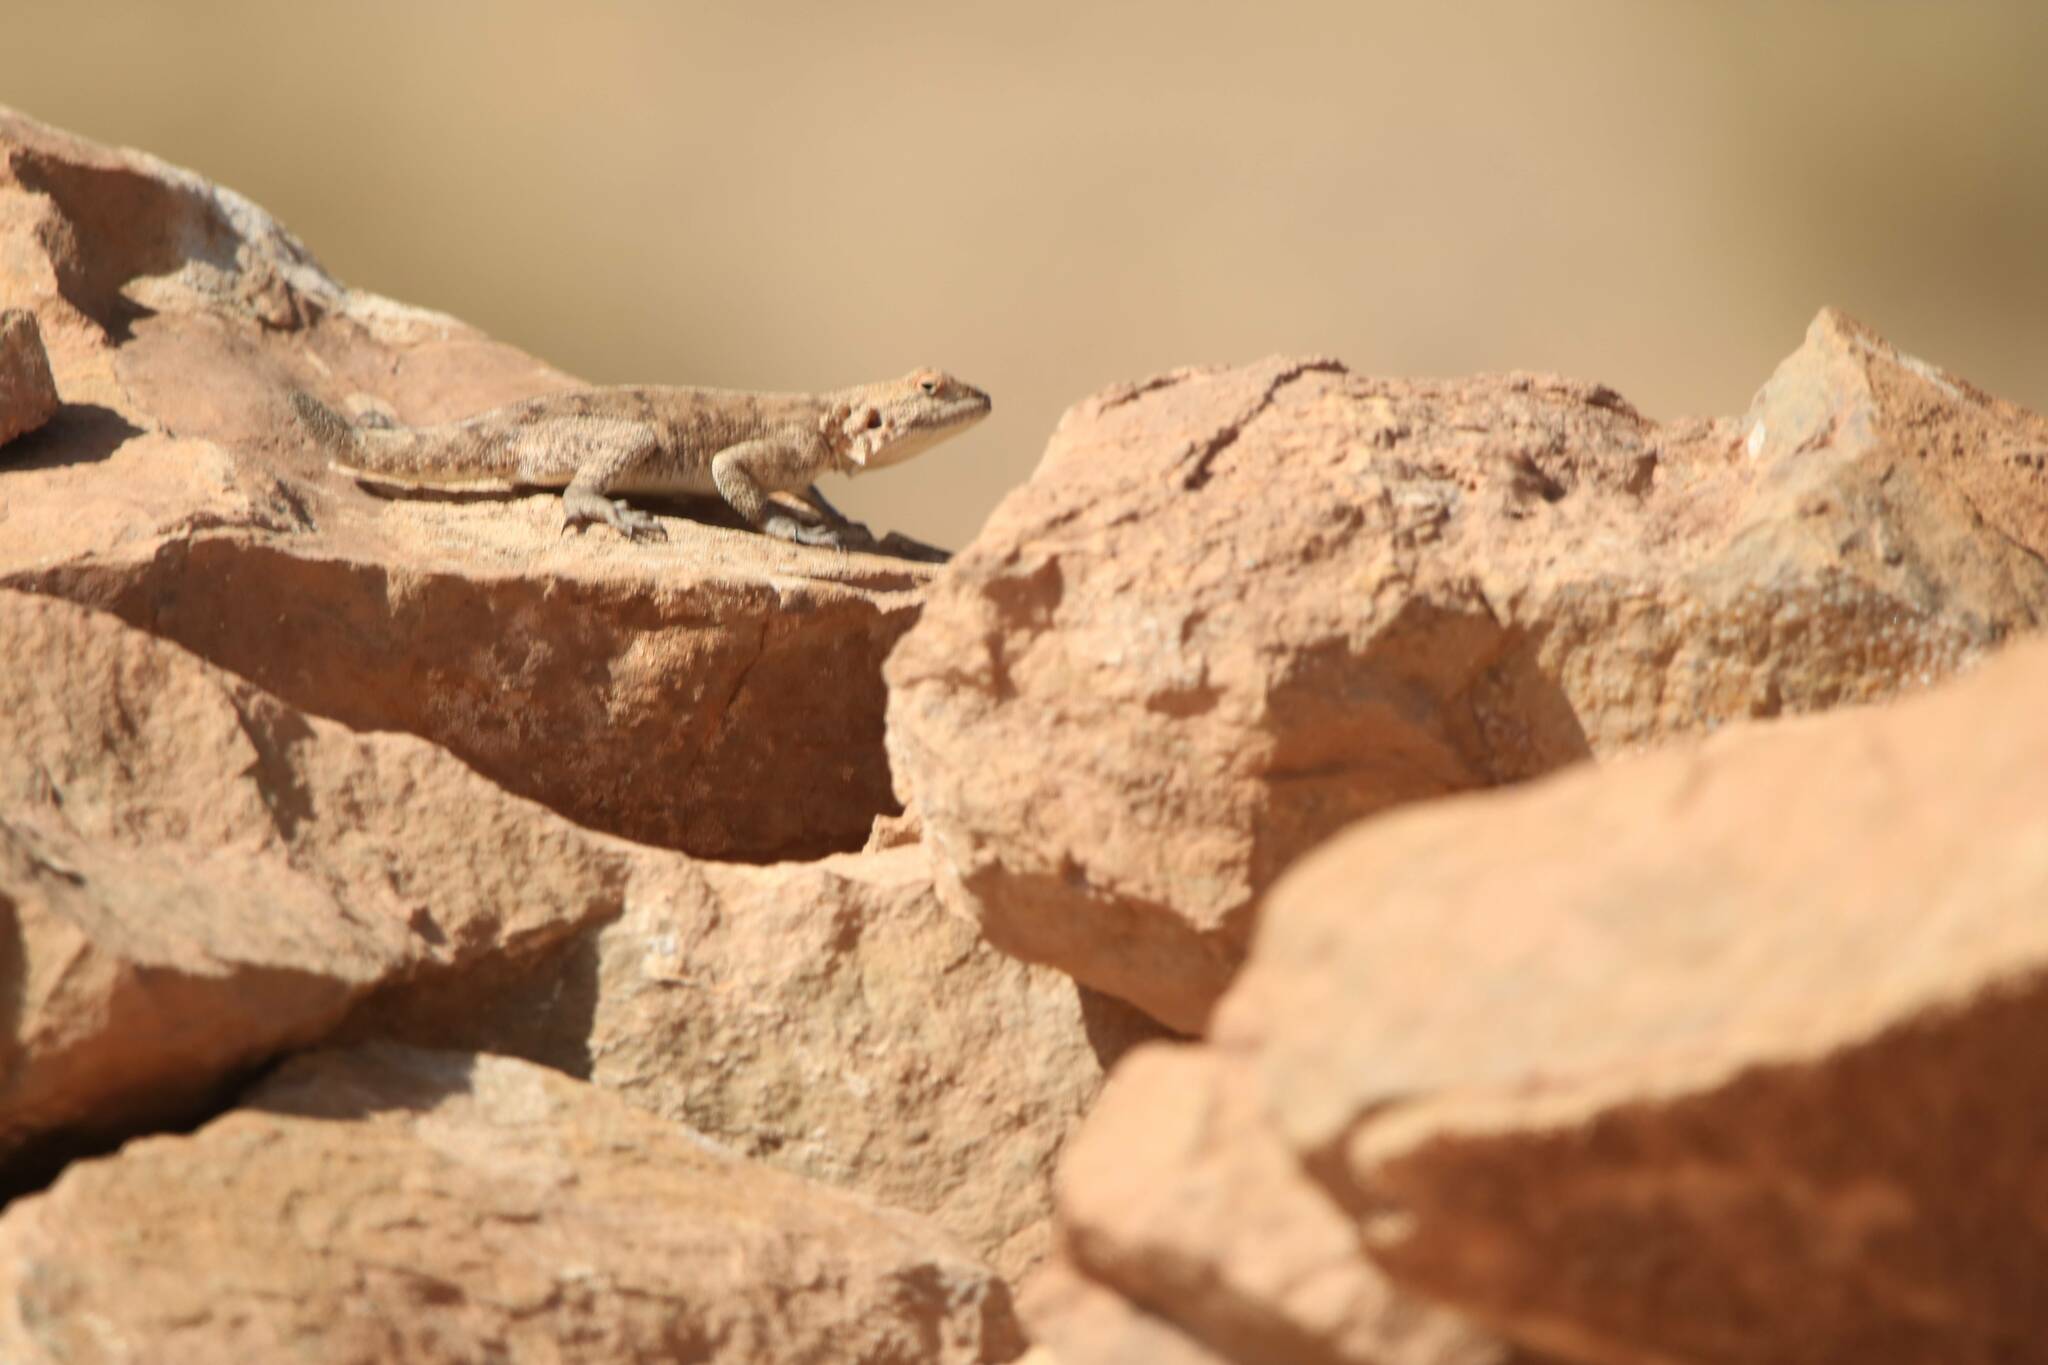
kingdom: Animalia
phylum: Chordata
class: Squamata
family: Agamidae
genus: Agama
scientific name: Agama impalearis
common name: Bibron's agama
